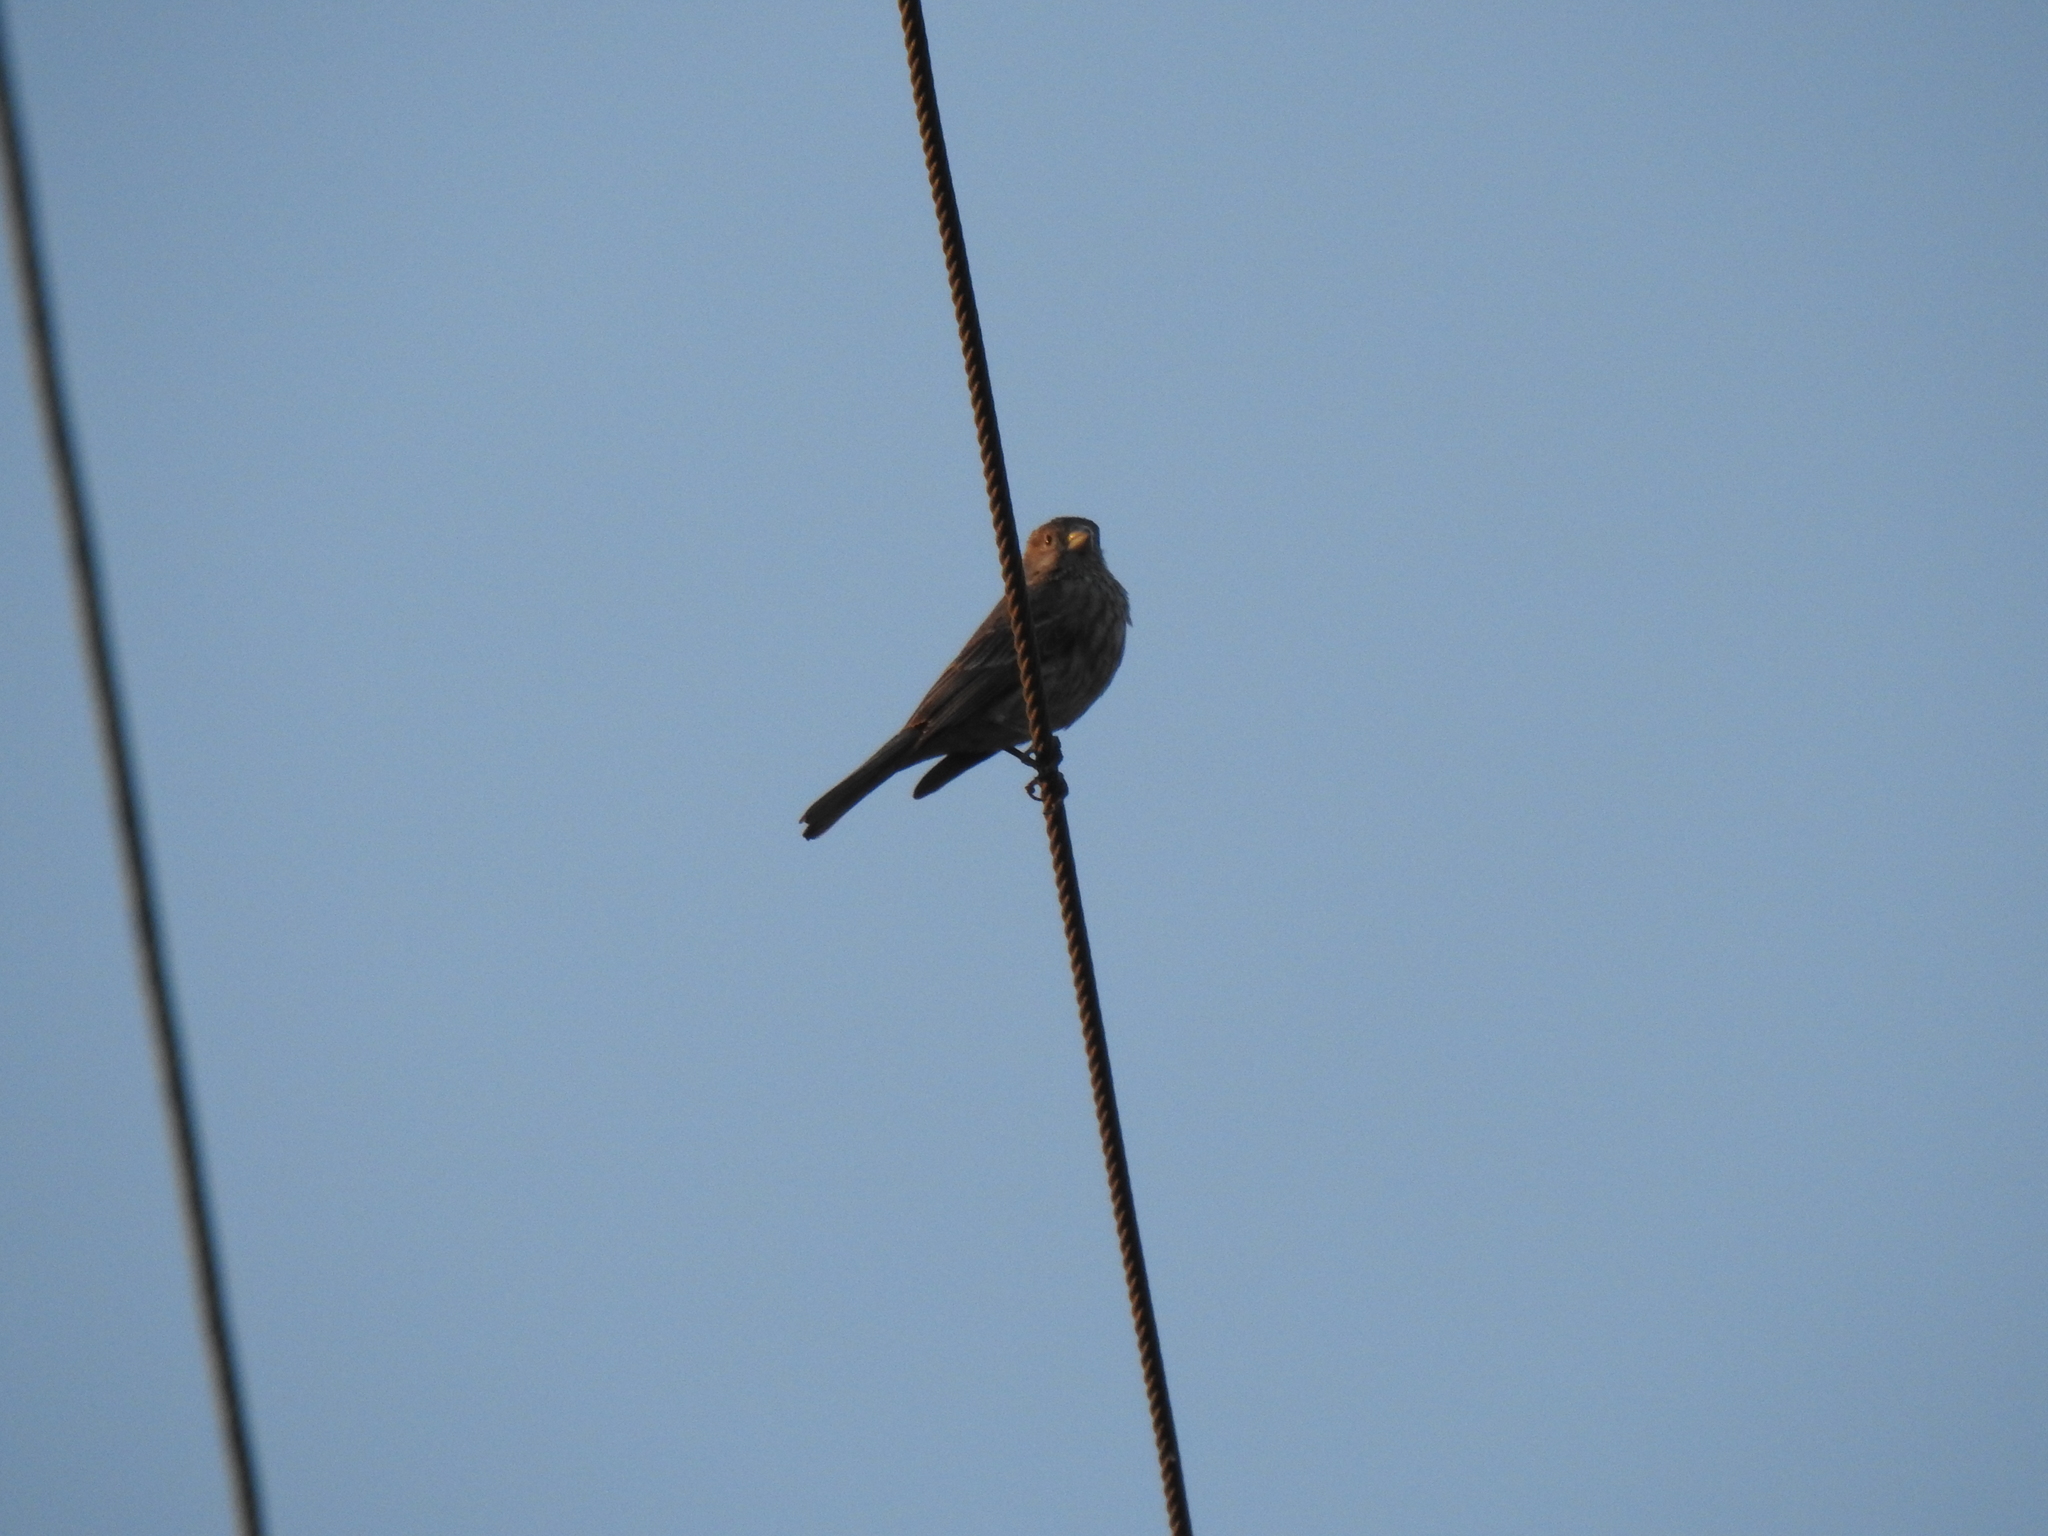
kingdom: Animalia
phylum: Chordata
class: Aves
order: Passeriformes
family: Fringillidae
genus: Haemorhous
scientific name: Haemorhous mexicanus
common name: House finch
